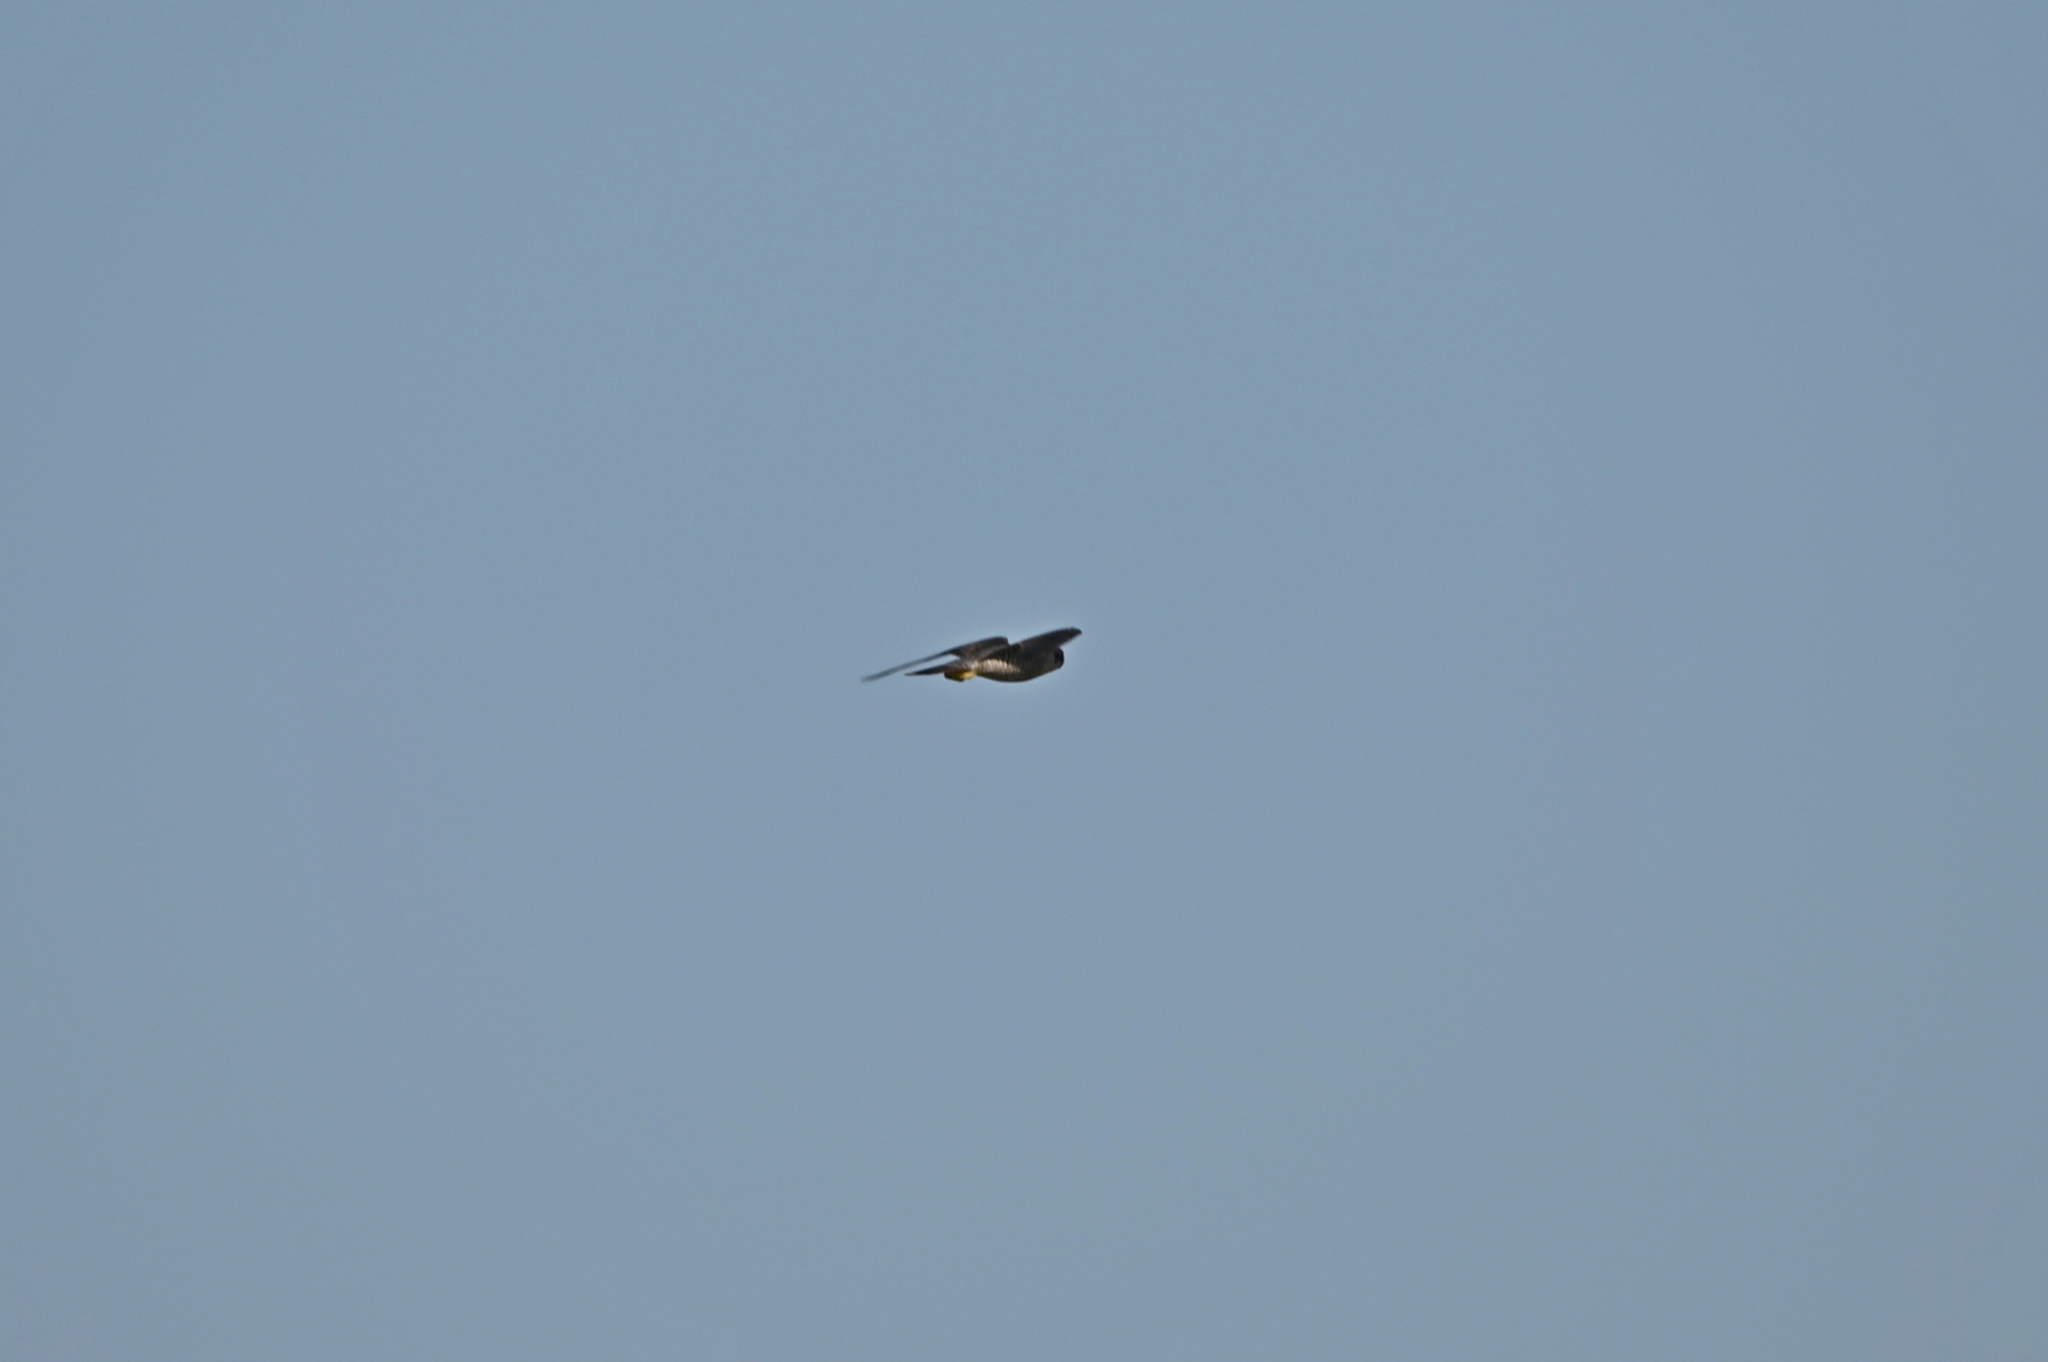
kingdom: Animalia
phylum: Chordata
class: Aves
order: Falconiformes
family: Falconidae
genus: Falco
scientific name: Falco peregrinus
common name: Peregrine falcon
